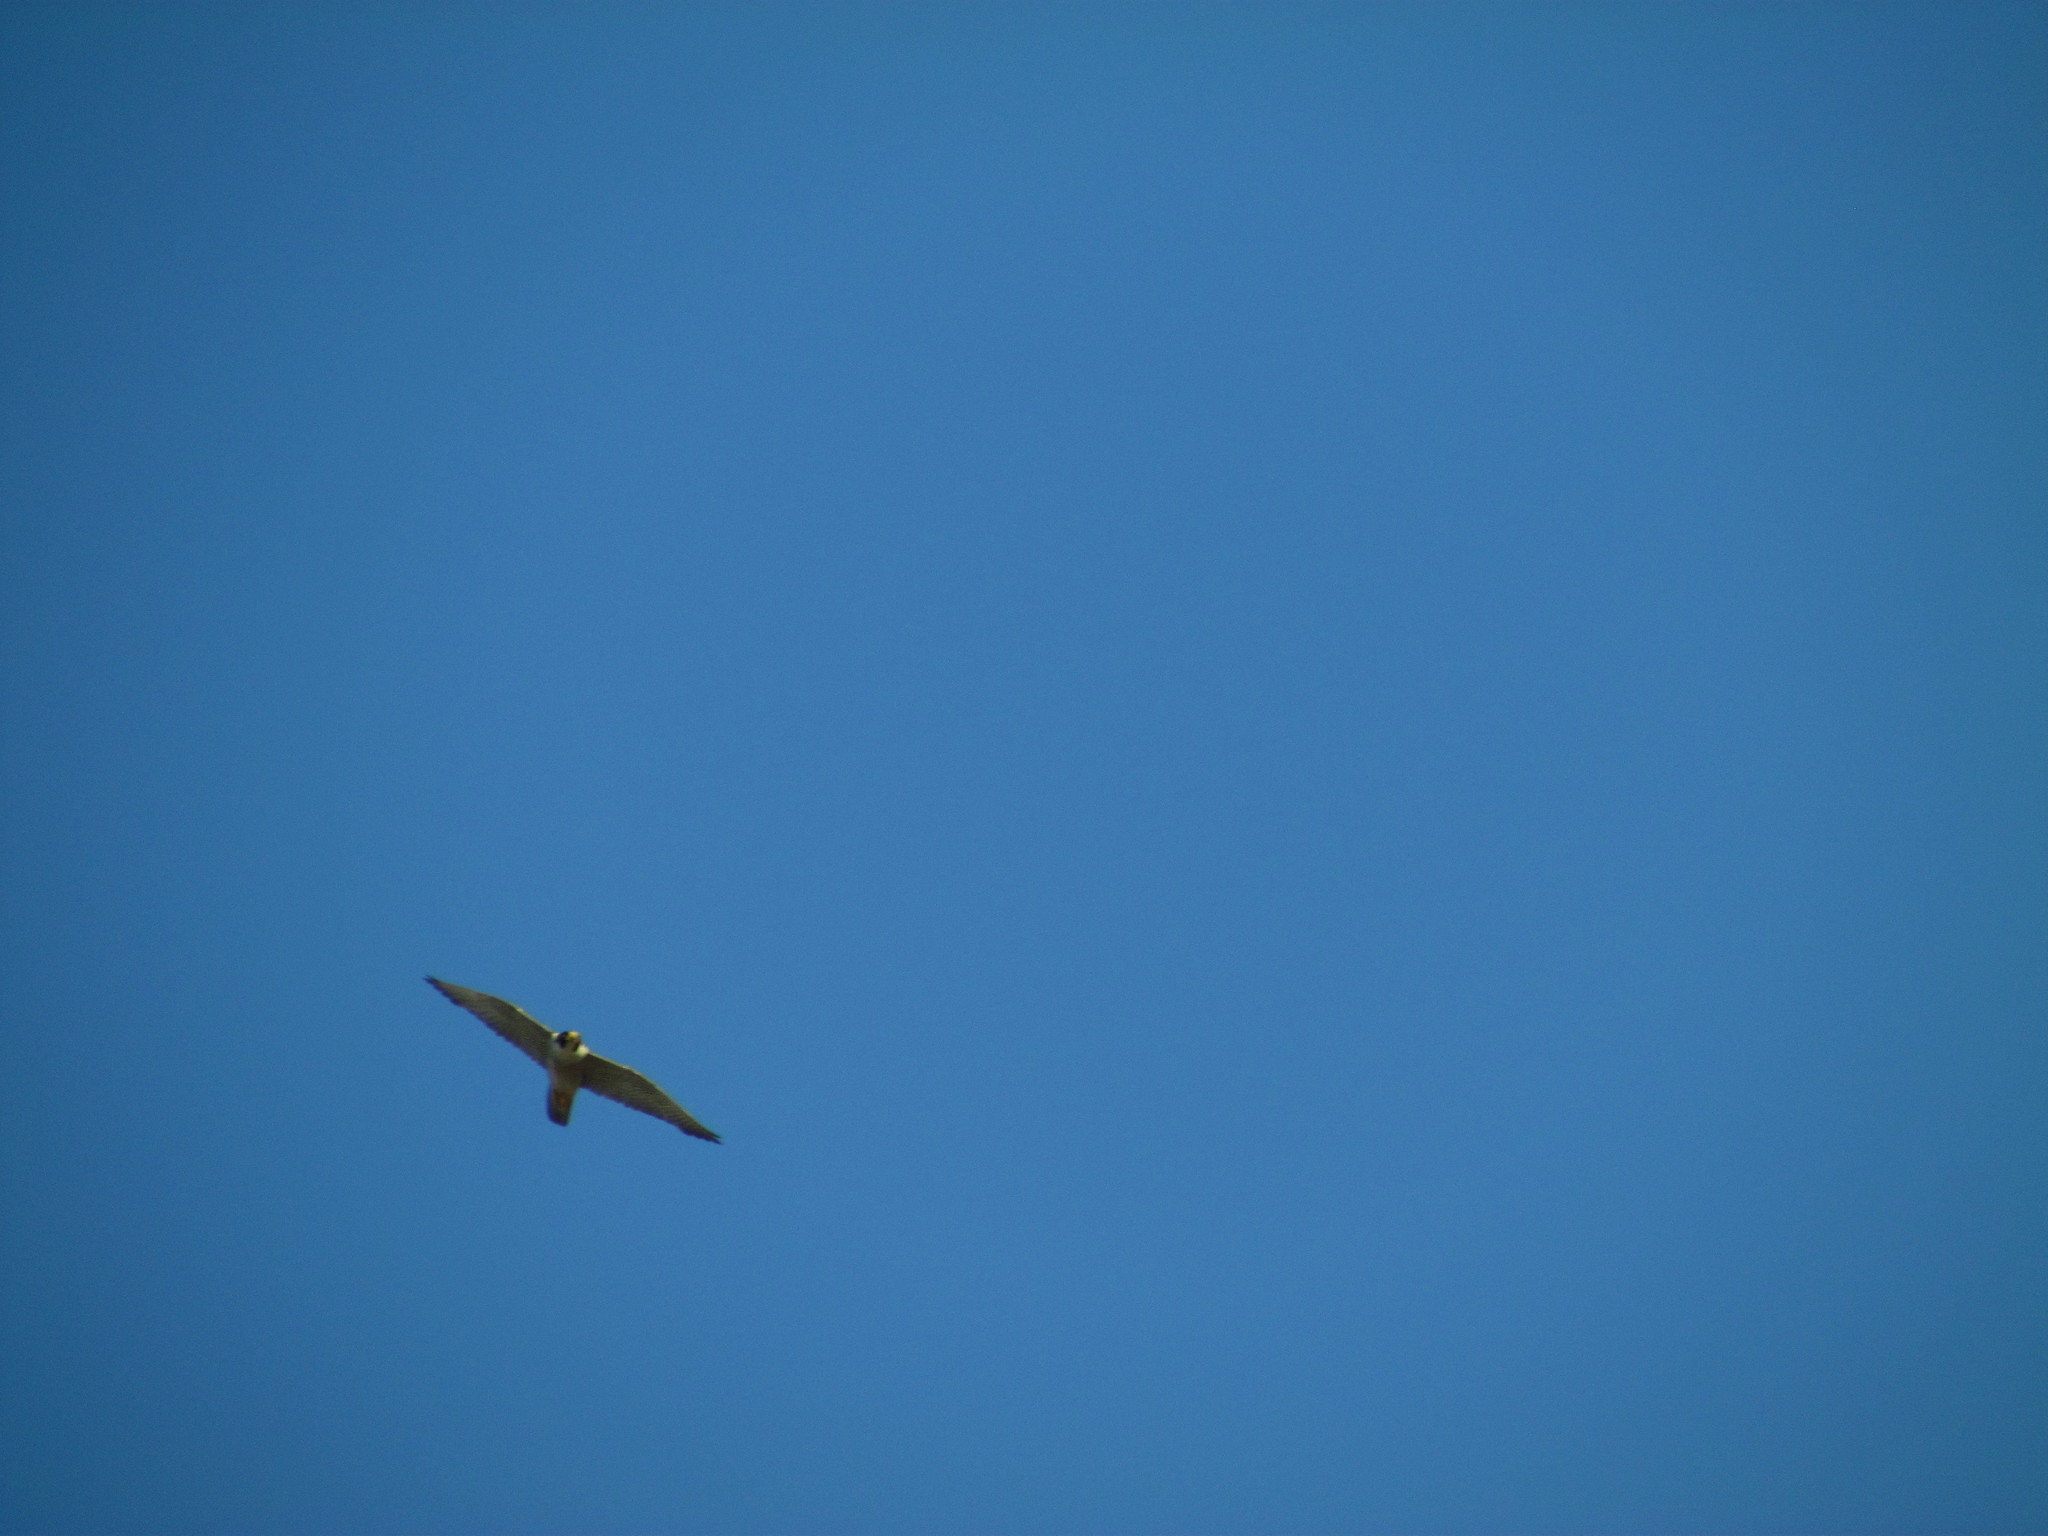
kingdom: Animalia
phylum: Chordata
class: Aves
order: Falconiformes
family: Falconidae
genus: Falco
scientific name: Falco peregrinus
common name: Peregrine falcon
